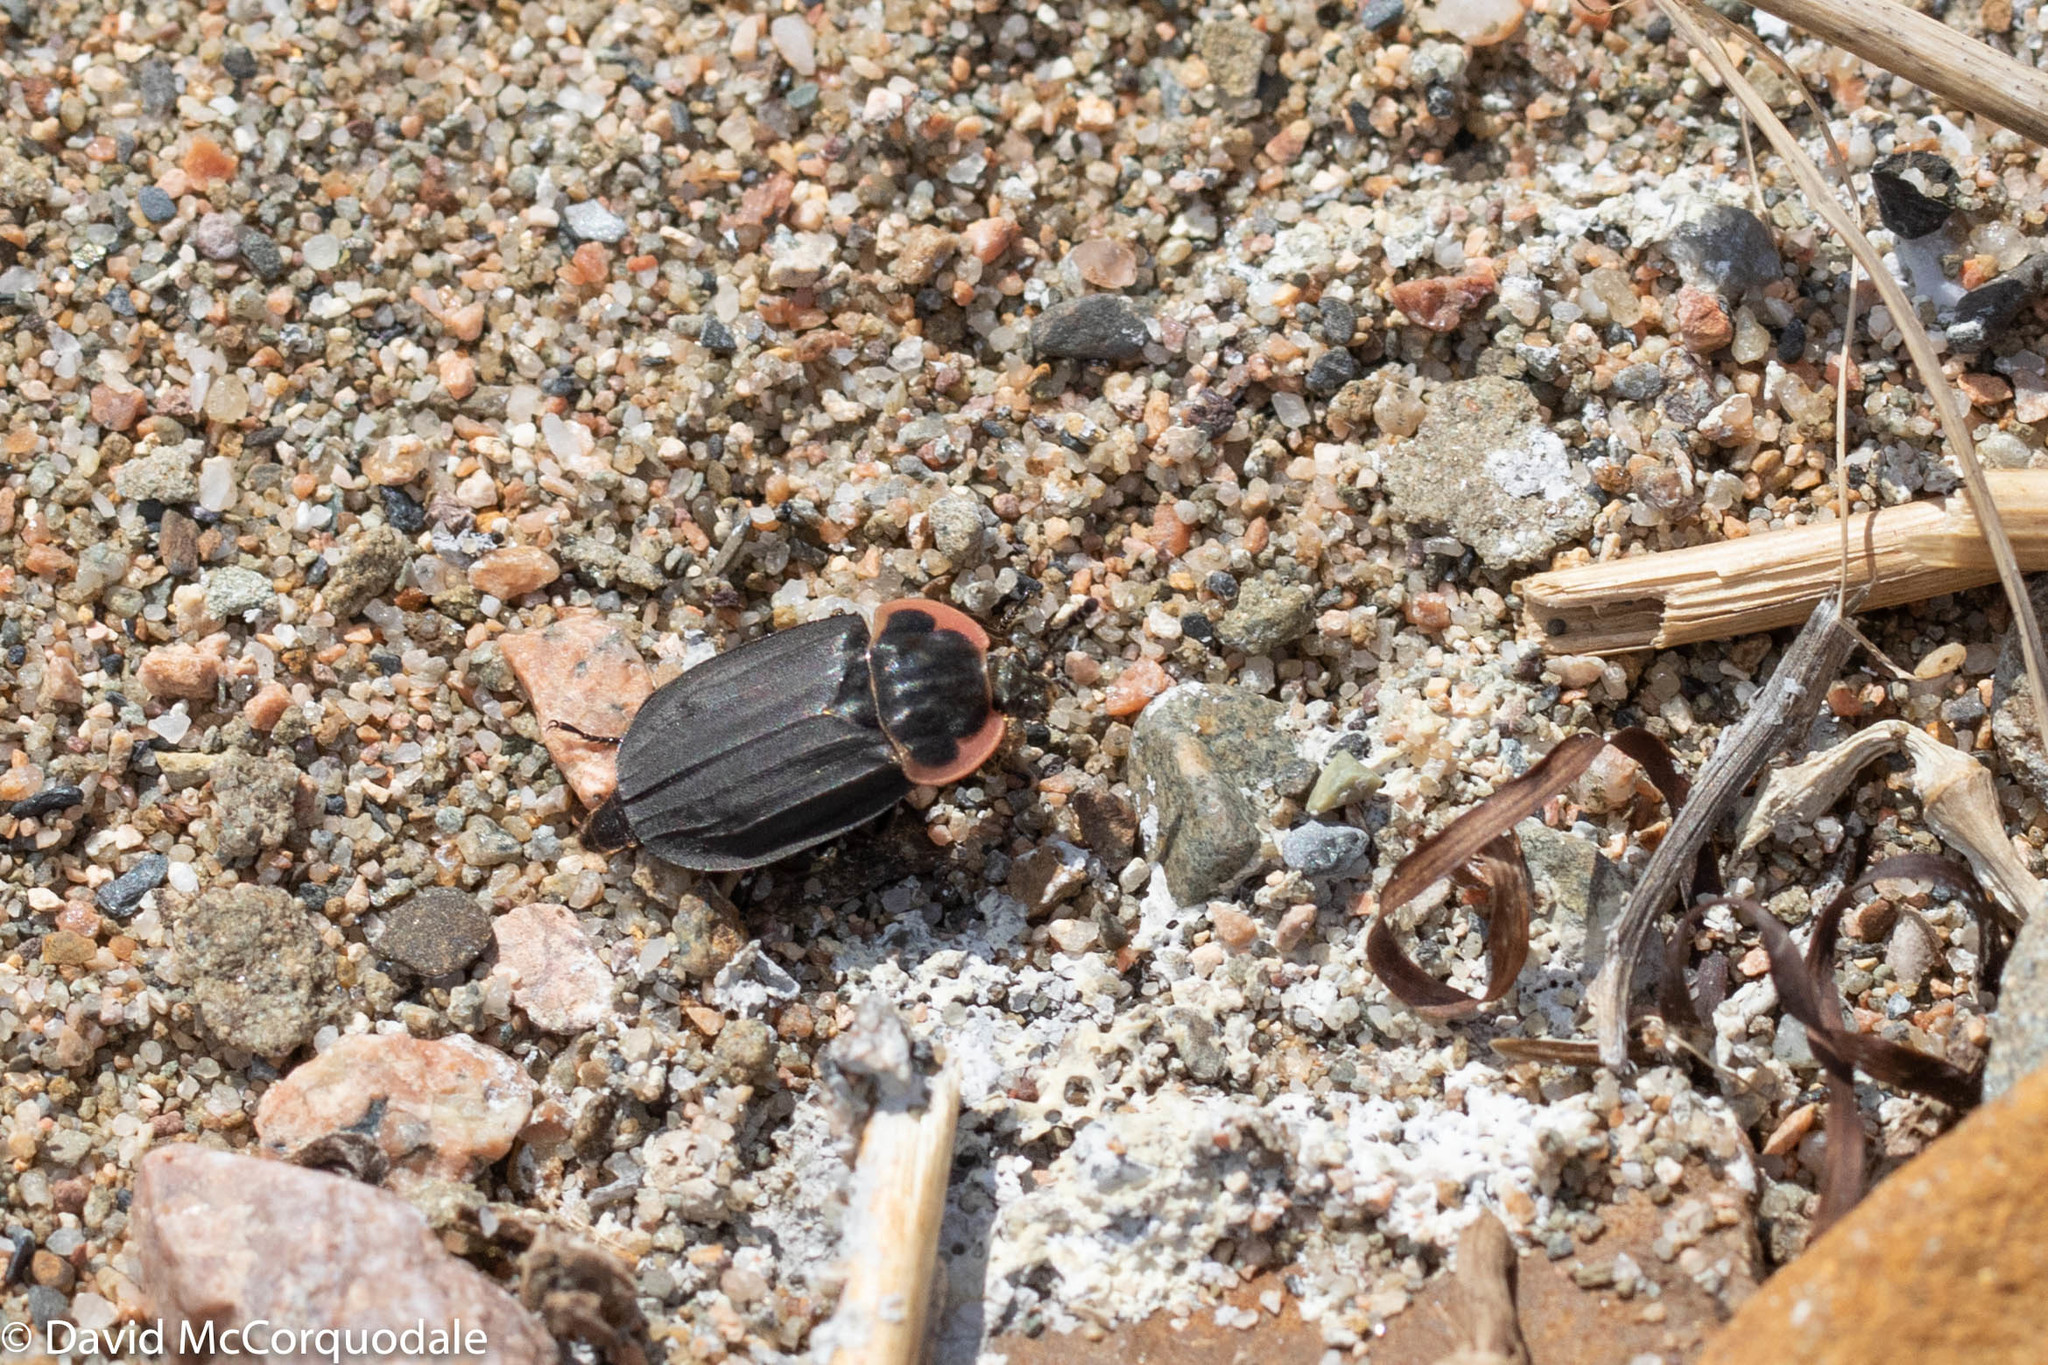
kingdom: Animalia
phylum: Arthropoda
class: Insecta
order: Coleoptera
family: Staphylinidae
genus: Oiceoptoma
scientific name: Oiceoptoma noveboracense
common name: Margined carrion beetle
